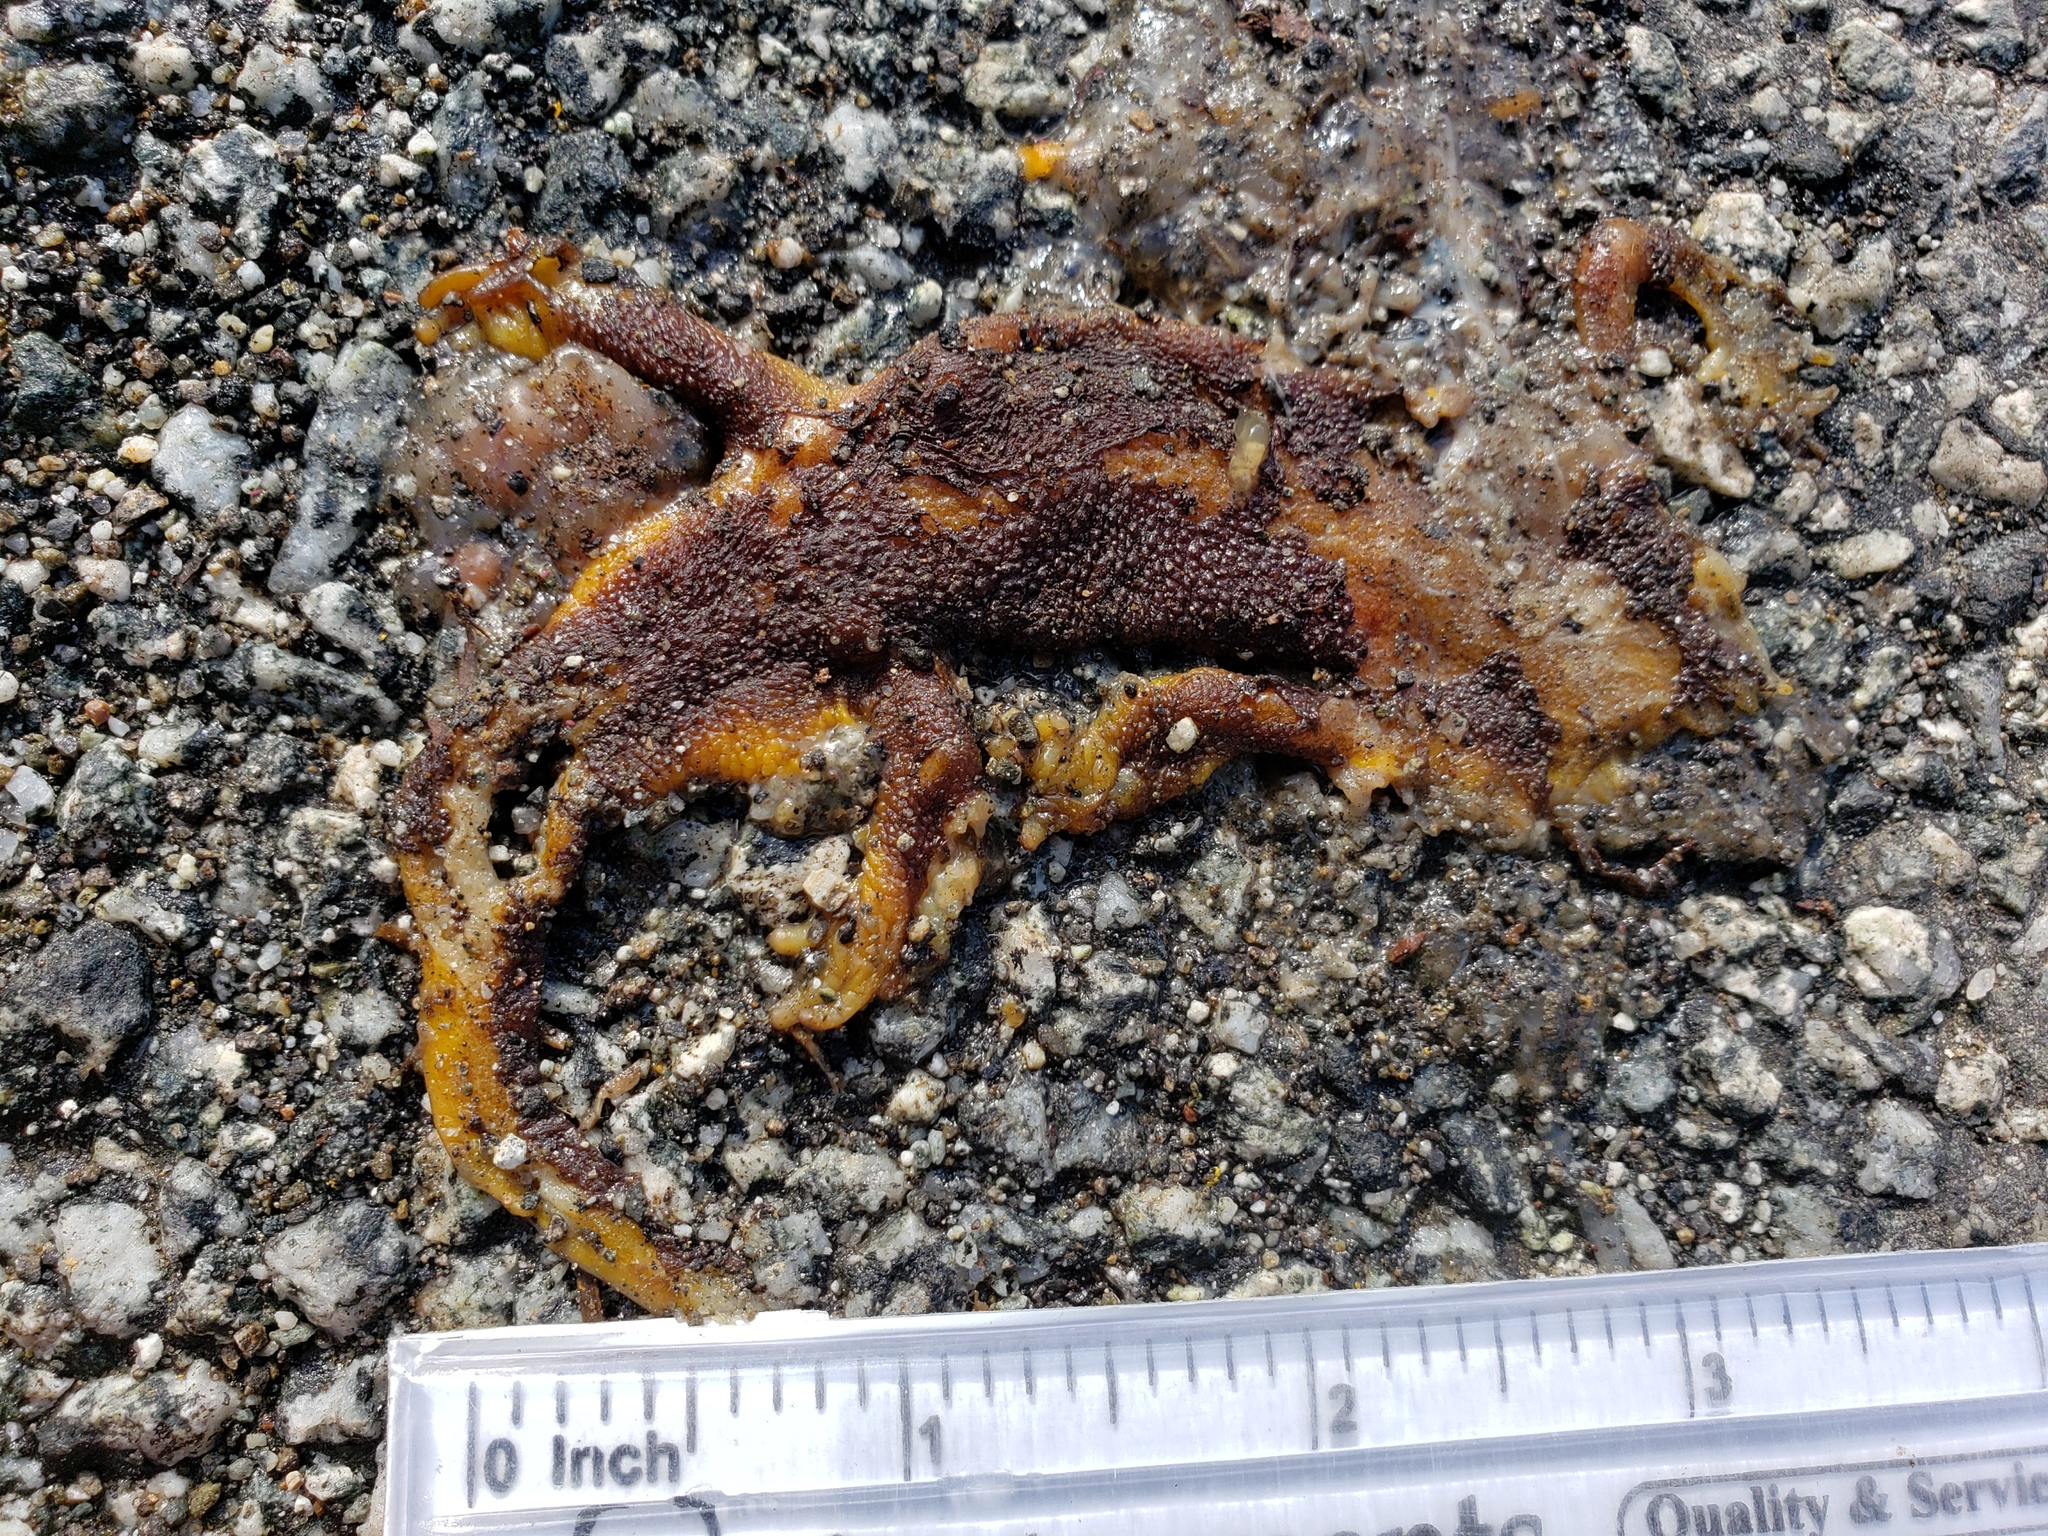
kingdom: Animalia
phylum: Chordata
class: Amphibia
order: Caudata
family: Salamandridae
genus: Taricha
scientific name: Taricha
